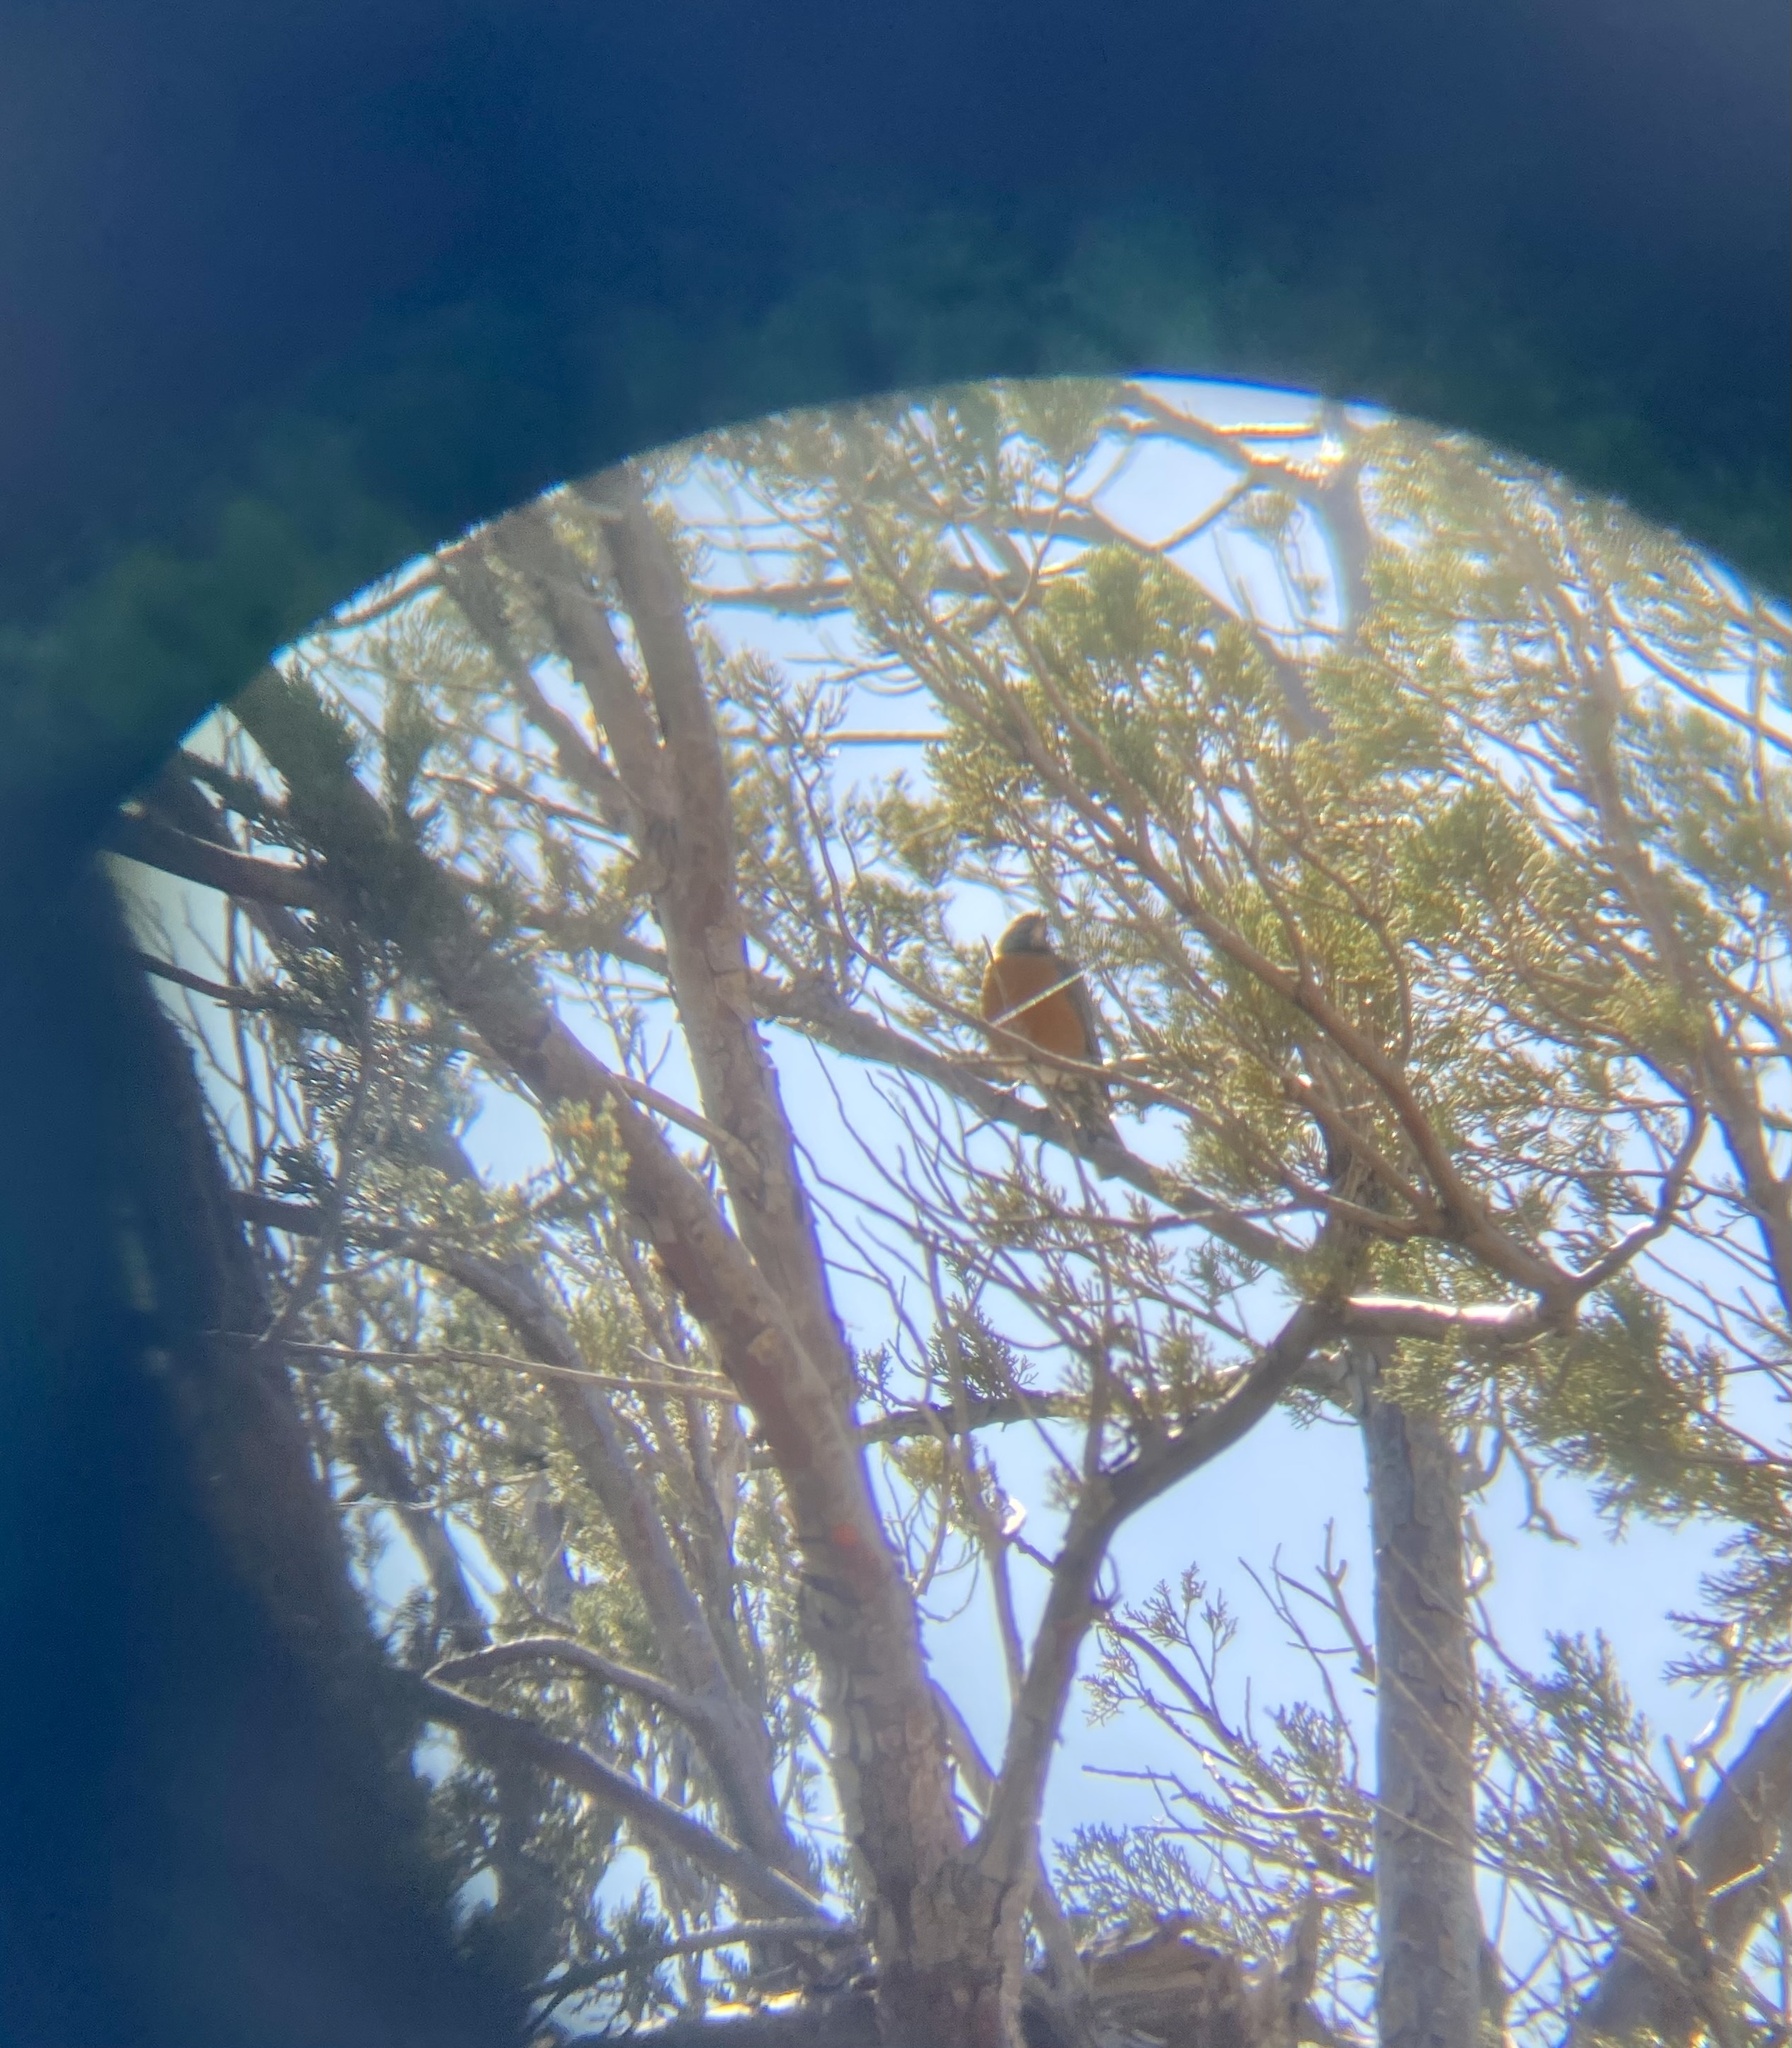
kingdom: Animalia
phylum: Chordata
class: Aves
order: Passeriformes
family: Turdidae
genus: Turdus
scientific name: Turdus migratorius
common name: American robin
